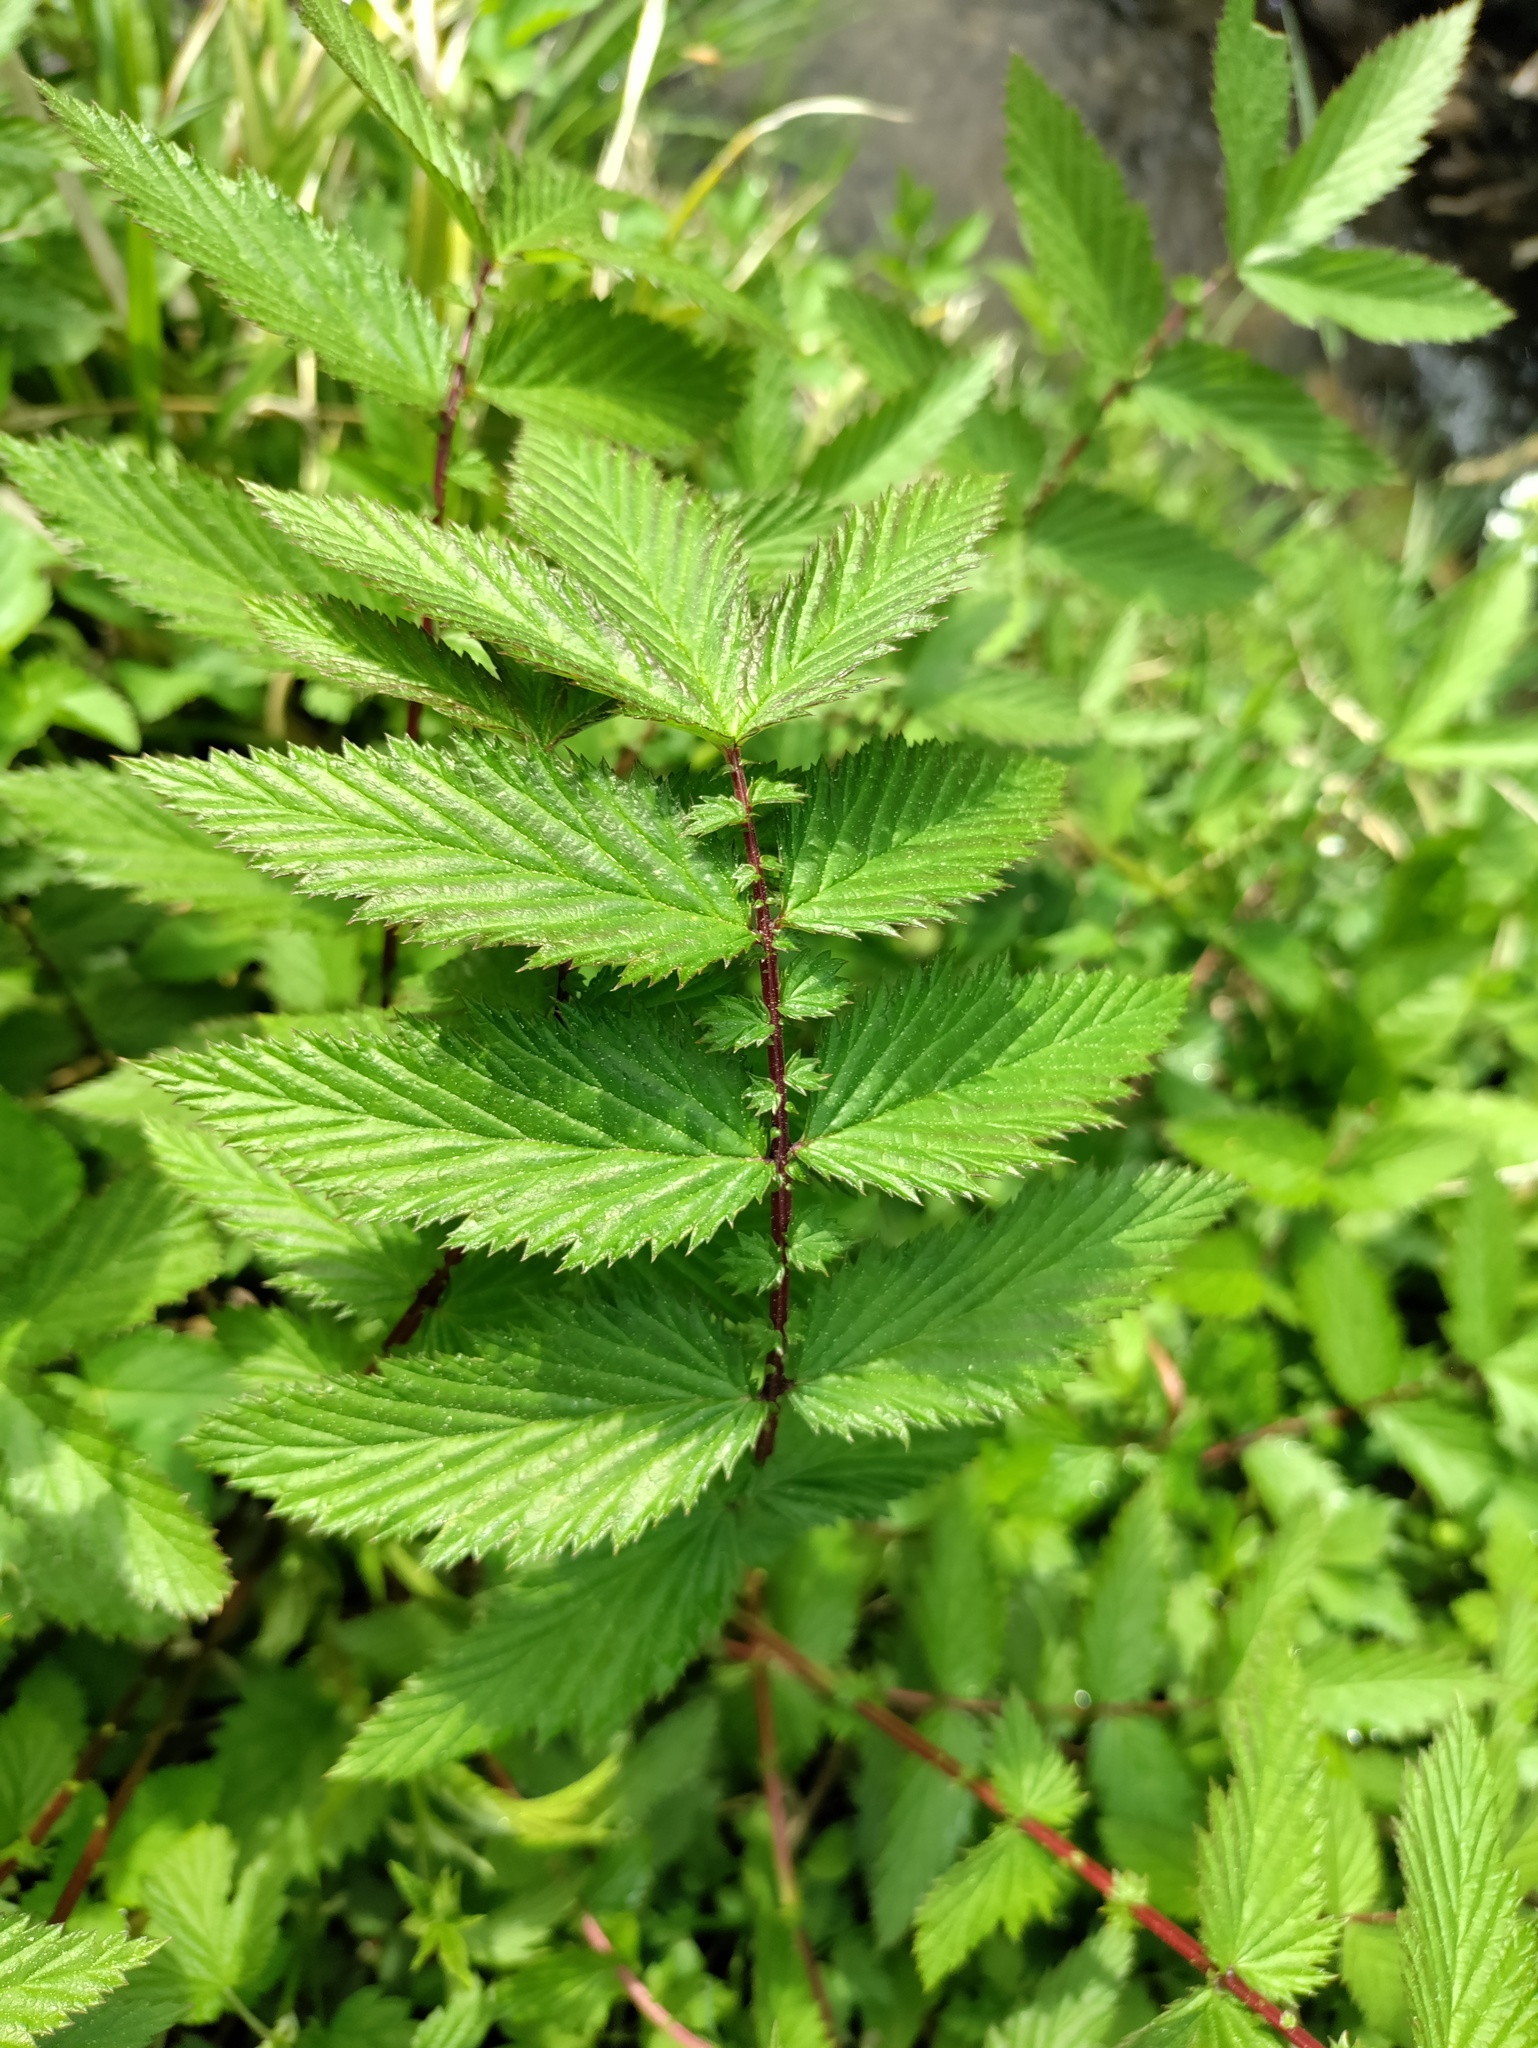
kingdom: Plantae
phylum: Tracheophyta
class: Magnoliopsida
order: Rosales
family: Rosaceae
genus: Filipendula
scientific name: Filipendula ulmaria
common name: Meadowsweet
